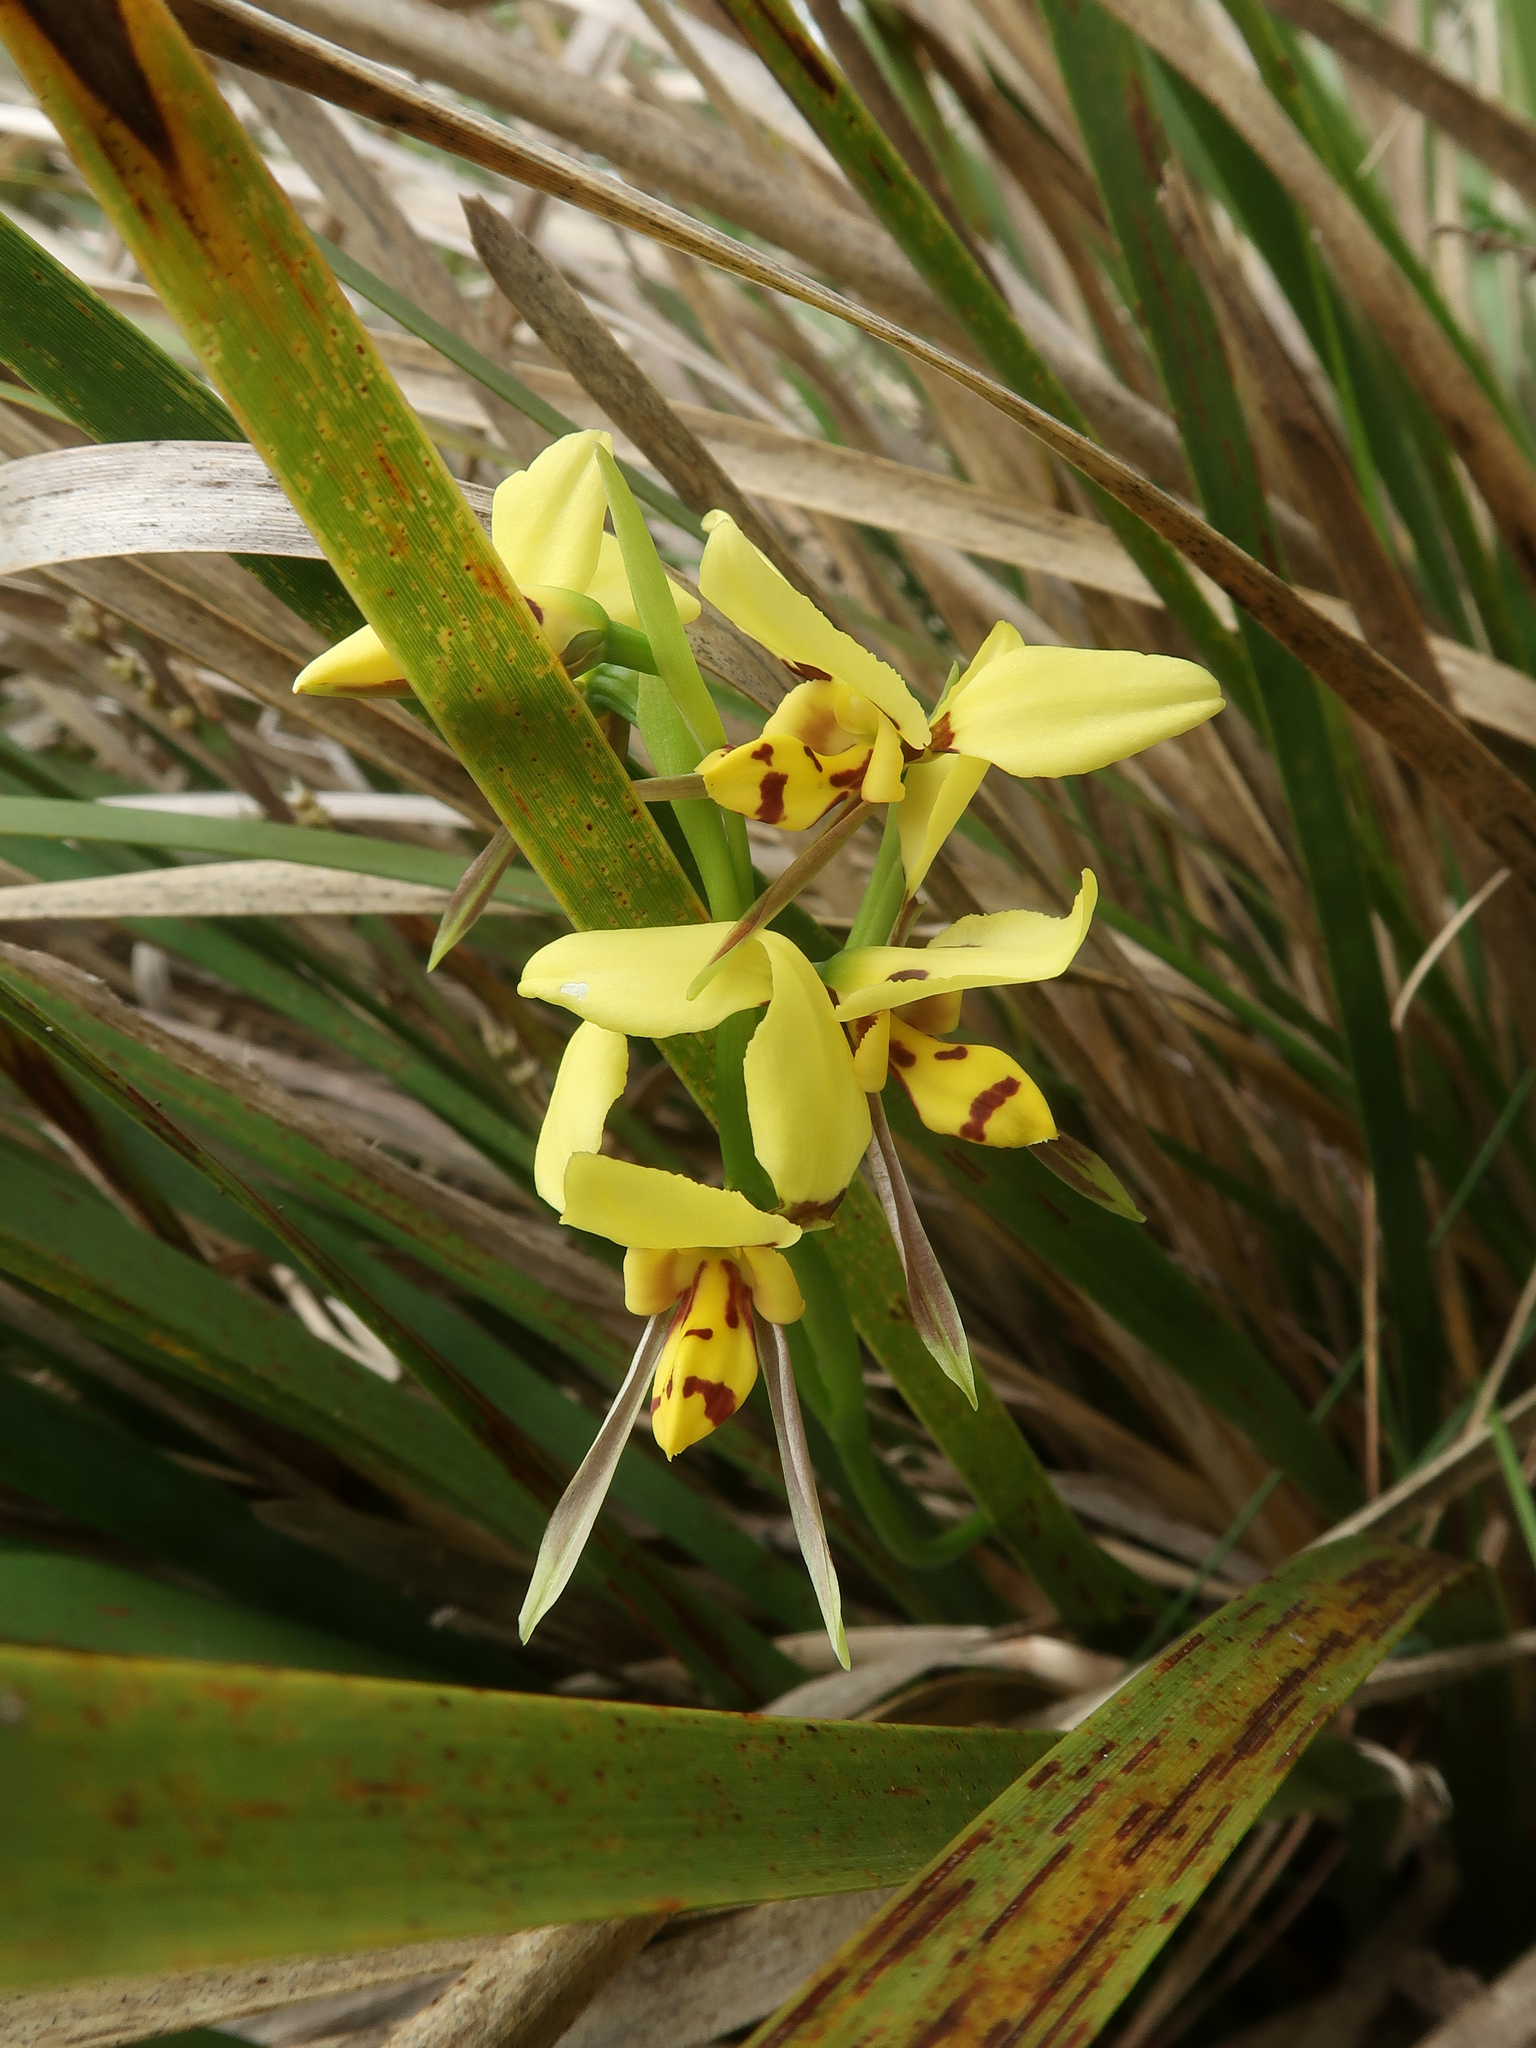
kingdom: Plantae
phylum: Tracheophyta
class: Liliopsida
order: Asparagales
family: Orchidaceae
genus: Diuris
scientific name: Diuris sulphurea
